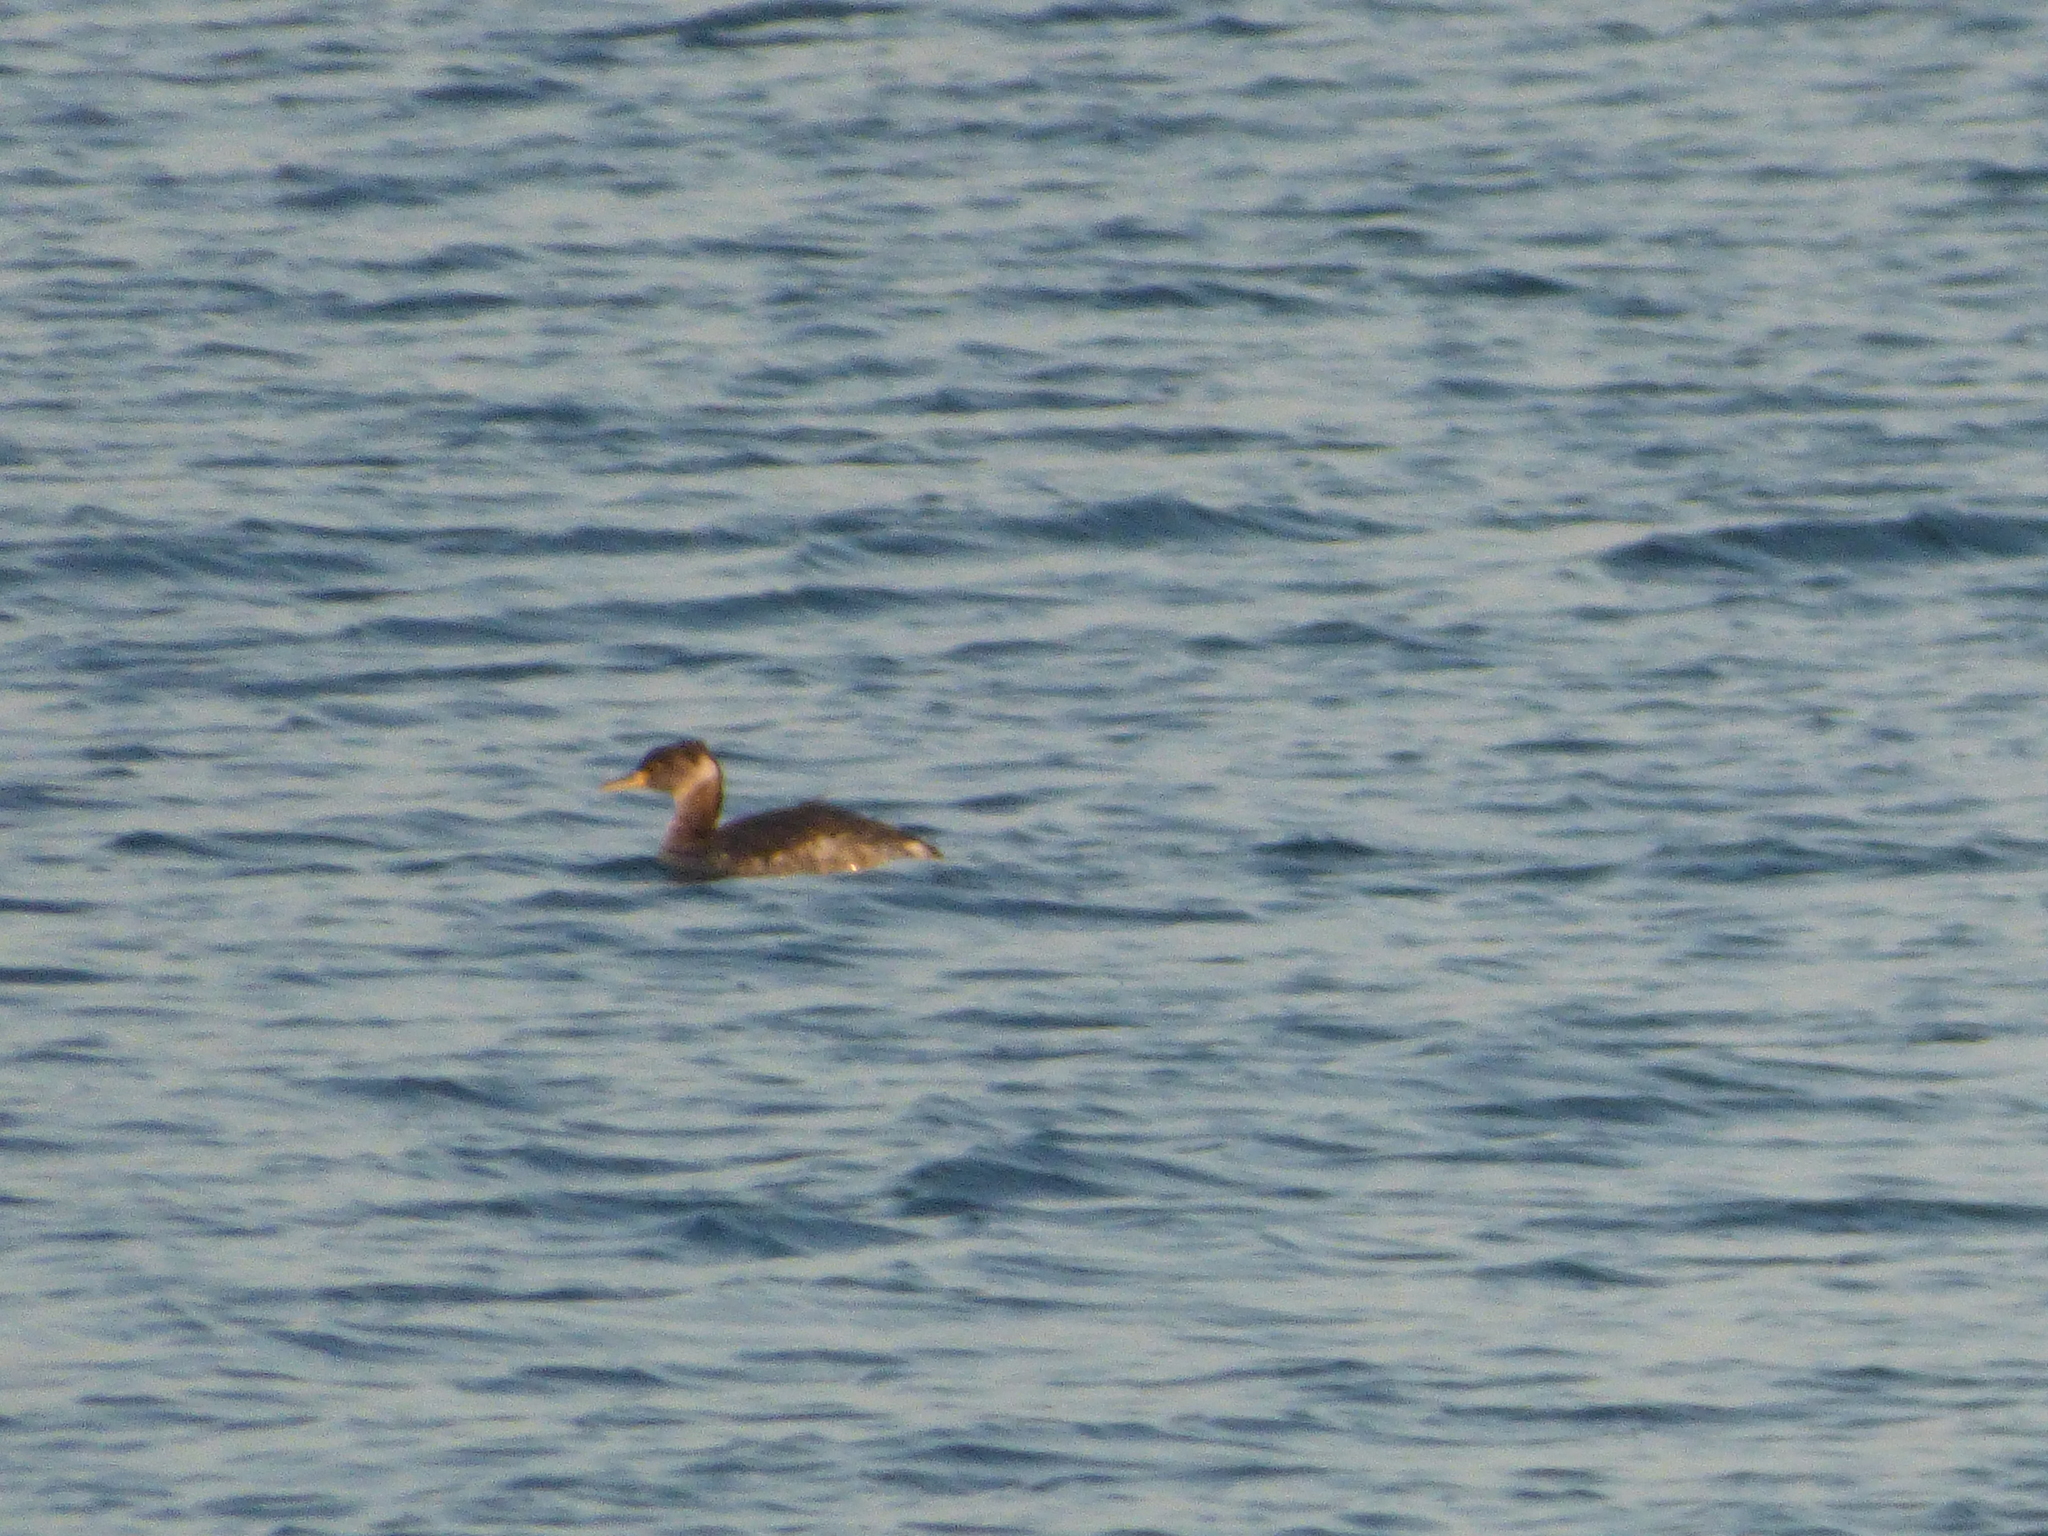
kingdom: Animalia
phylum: Chordata
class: Aves
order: Podicipediformes
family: Podicipedidae
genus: Podiceps
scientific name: Podiceps grisegena
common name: Red-necked grebe
